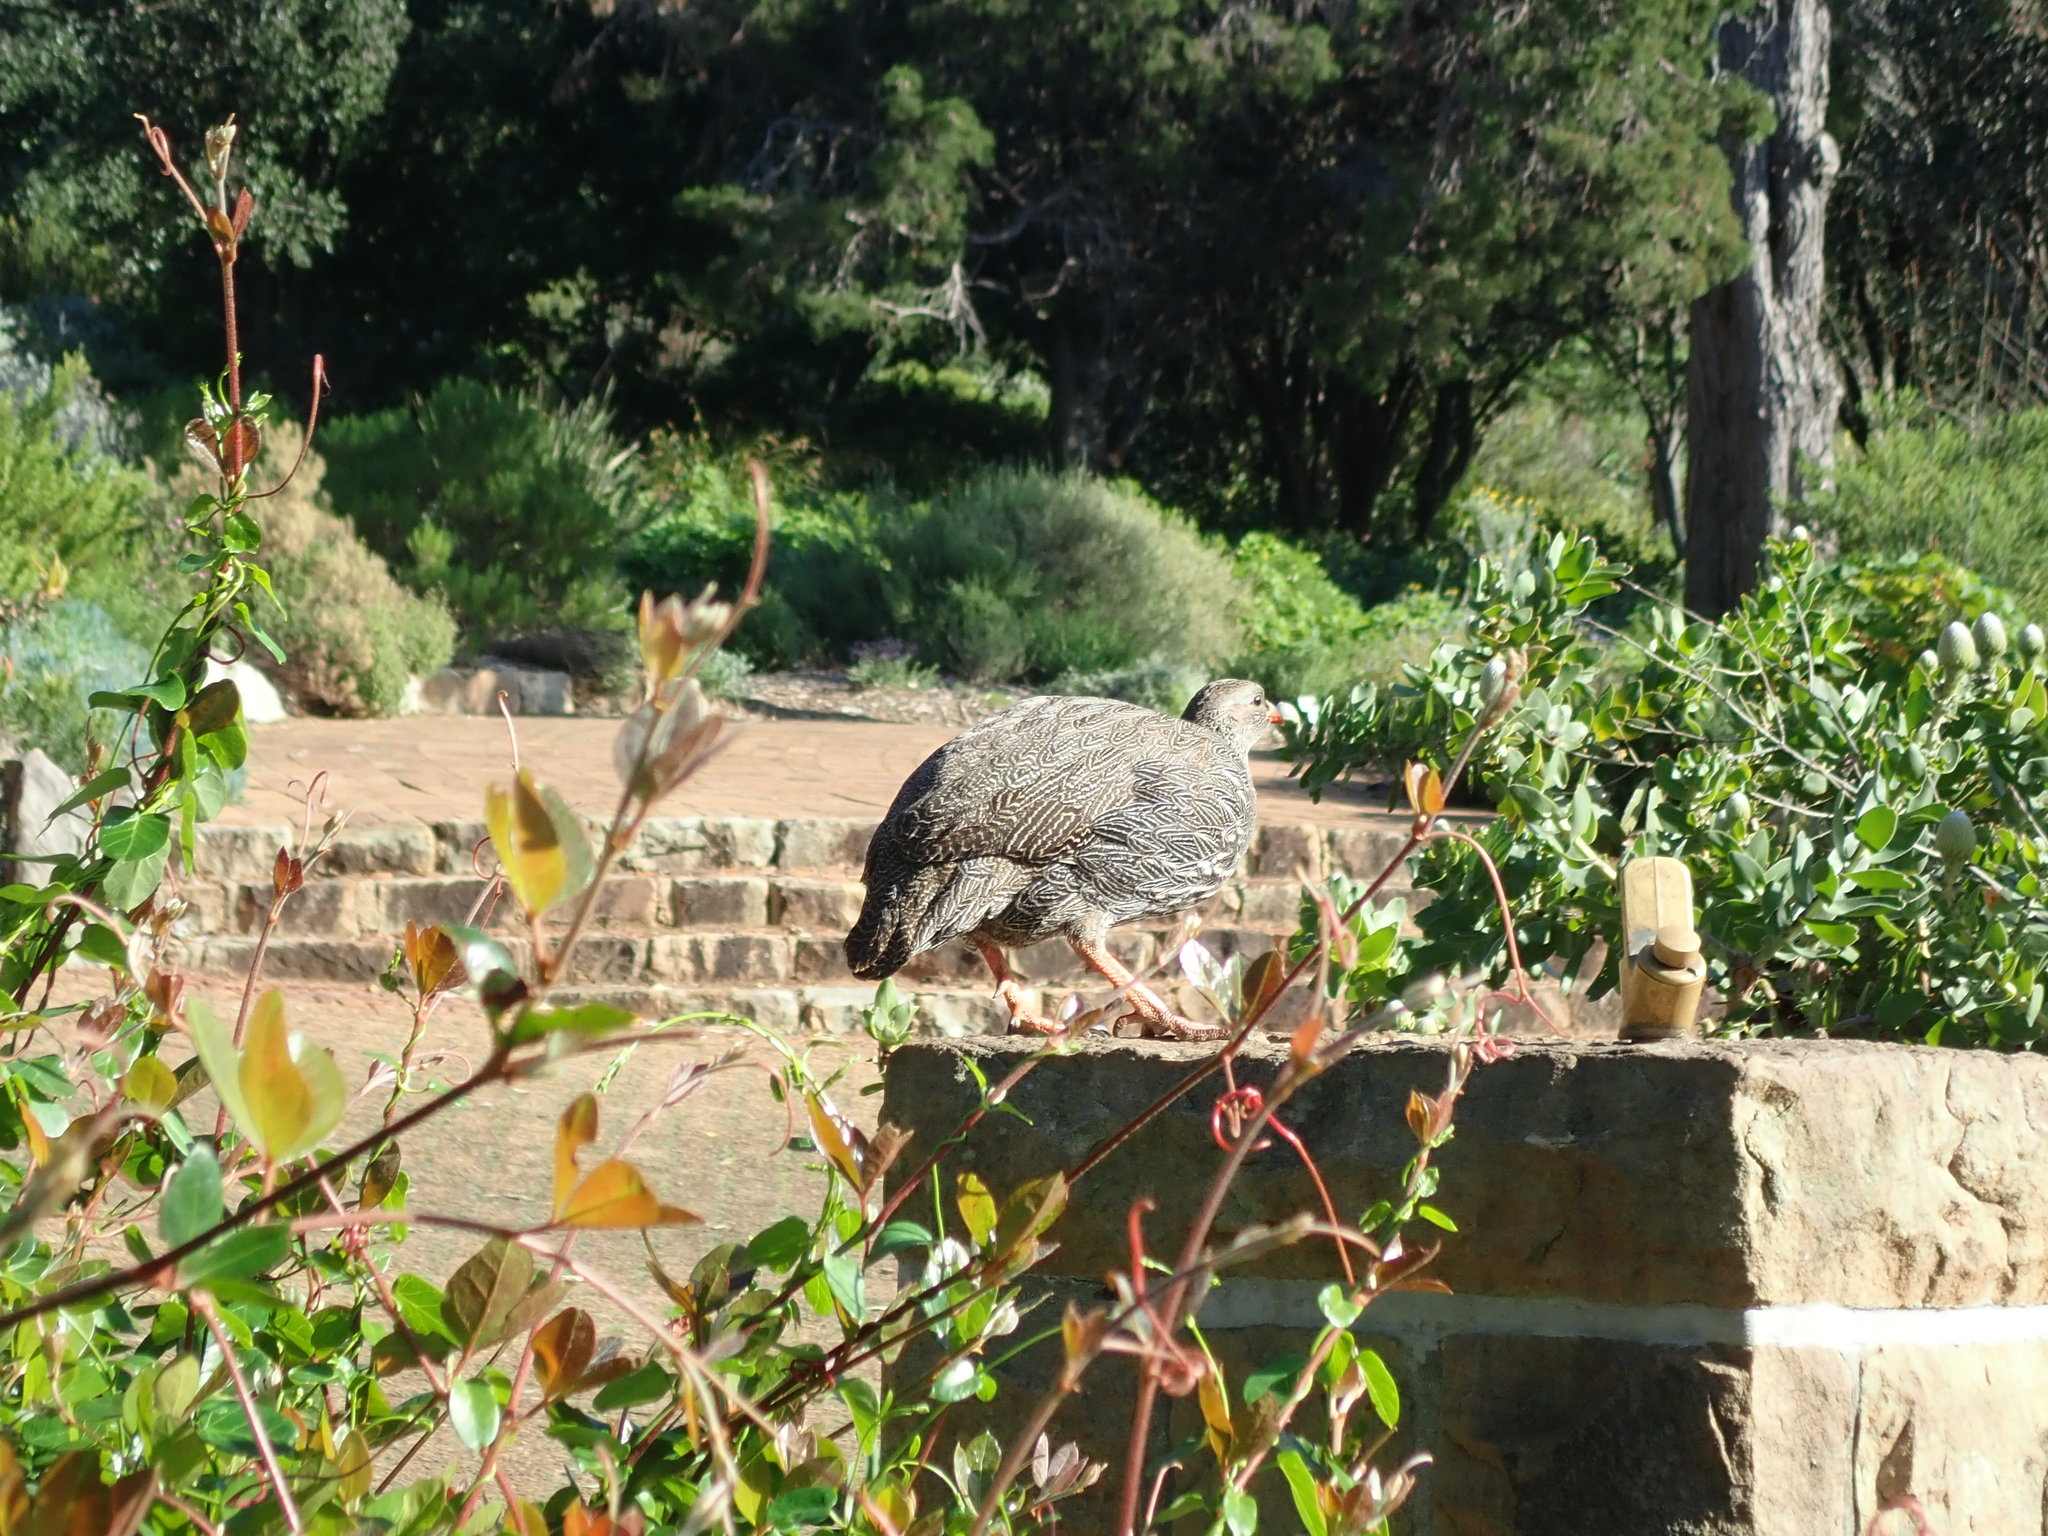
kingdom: Animalia
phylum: Arthropoda
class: Insecta
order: Orthoptera
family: Acrididae
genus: Acanthacris
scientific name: Acanthacris ruficornis
